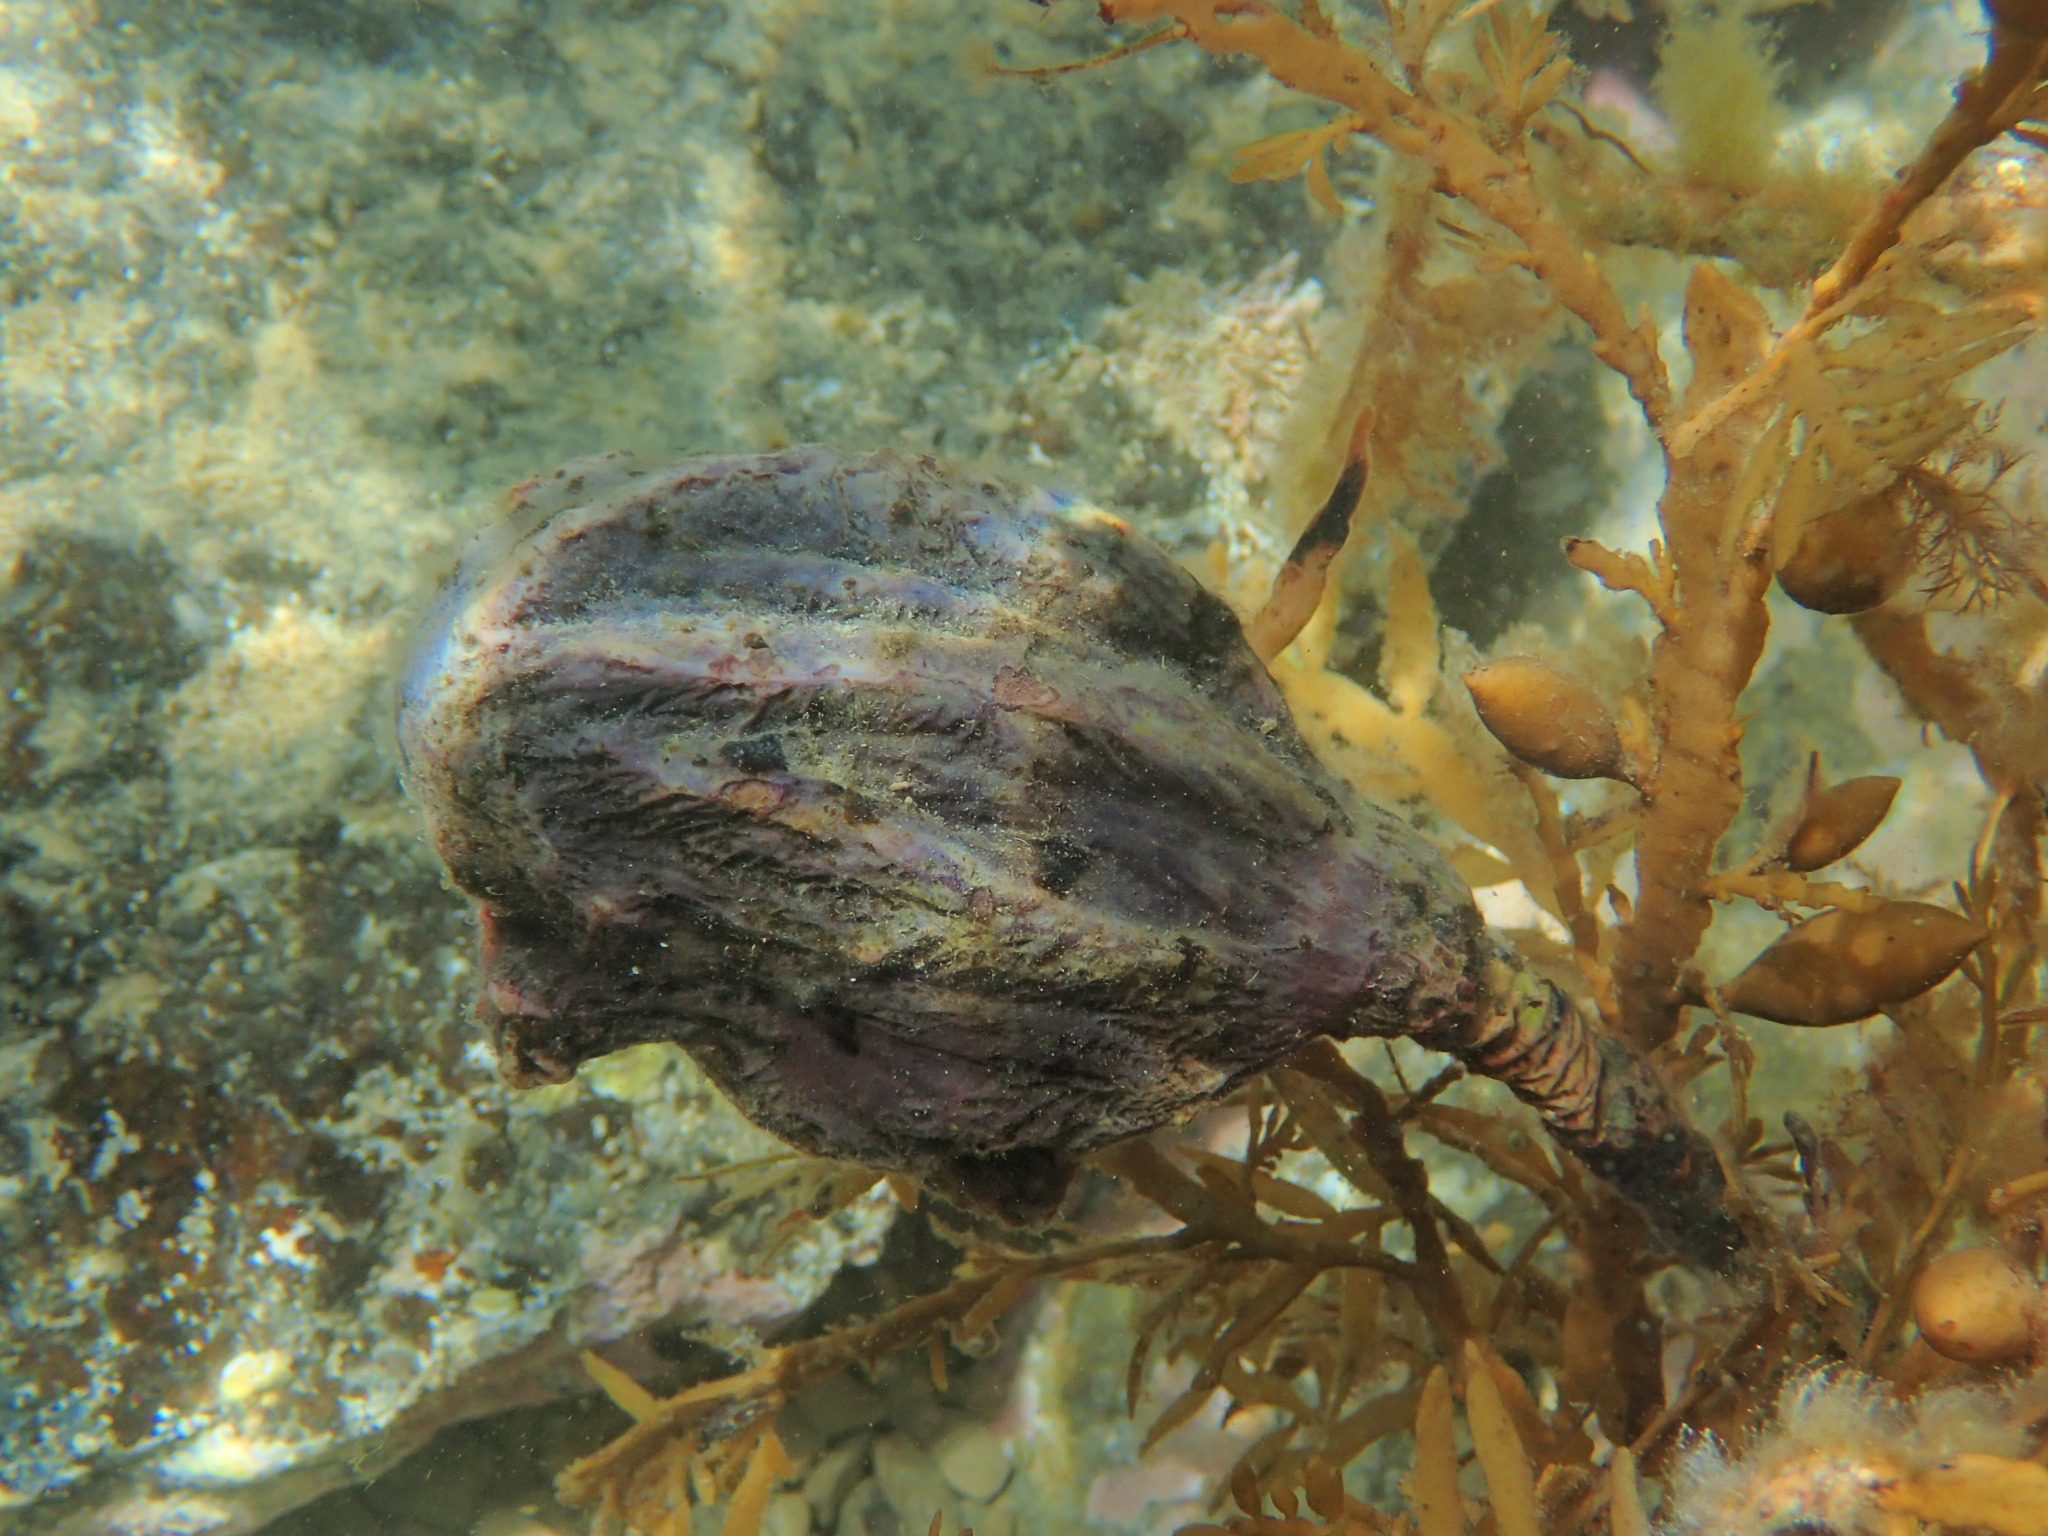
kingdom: Animalia
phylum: Chordata
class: Ascidiacea
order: Stolidobranchia
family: Pyuridae
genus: Pyura
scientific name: Pyura pachydermatina
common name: Sea tulip
